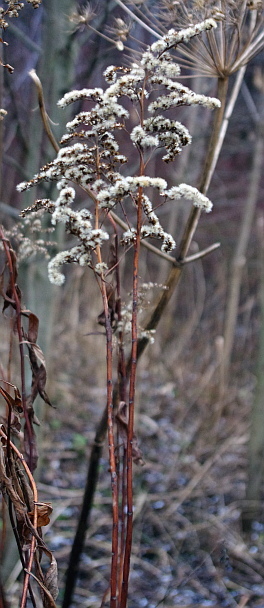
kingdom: Plantae
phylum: Tracheophyta
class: Magnoliopsida
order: Asterales
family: Asteraceae
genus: Solidago
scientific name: Solidago gigantea
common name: Giant goldenrod
